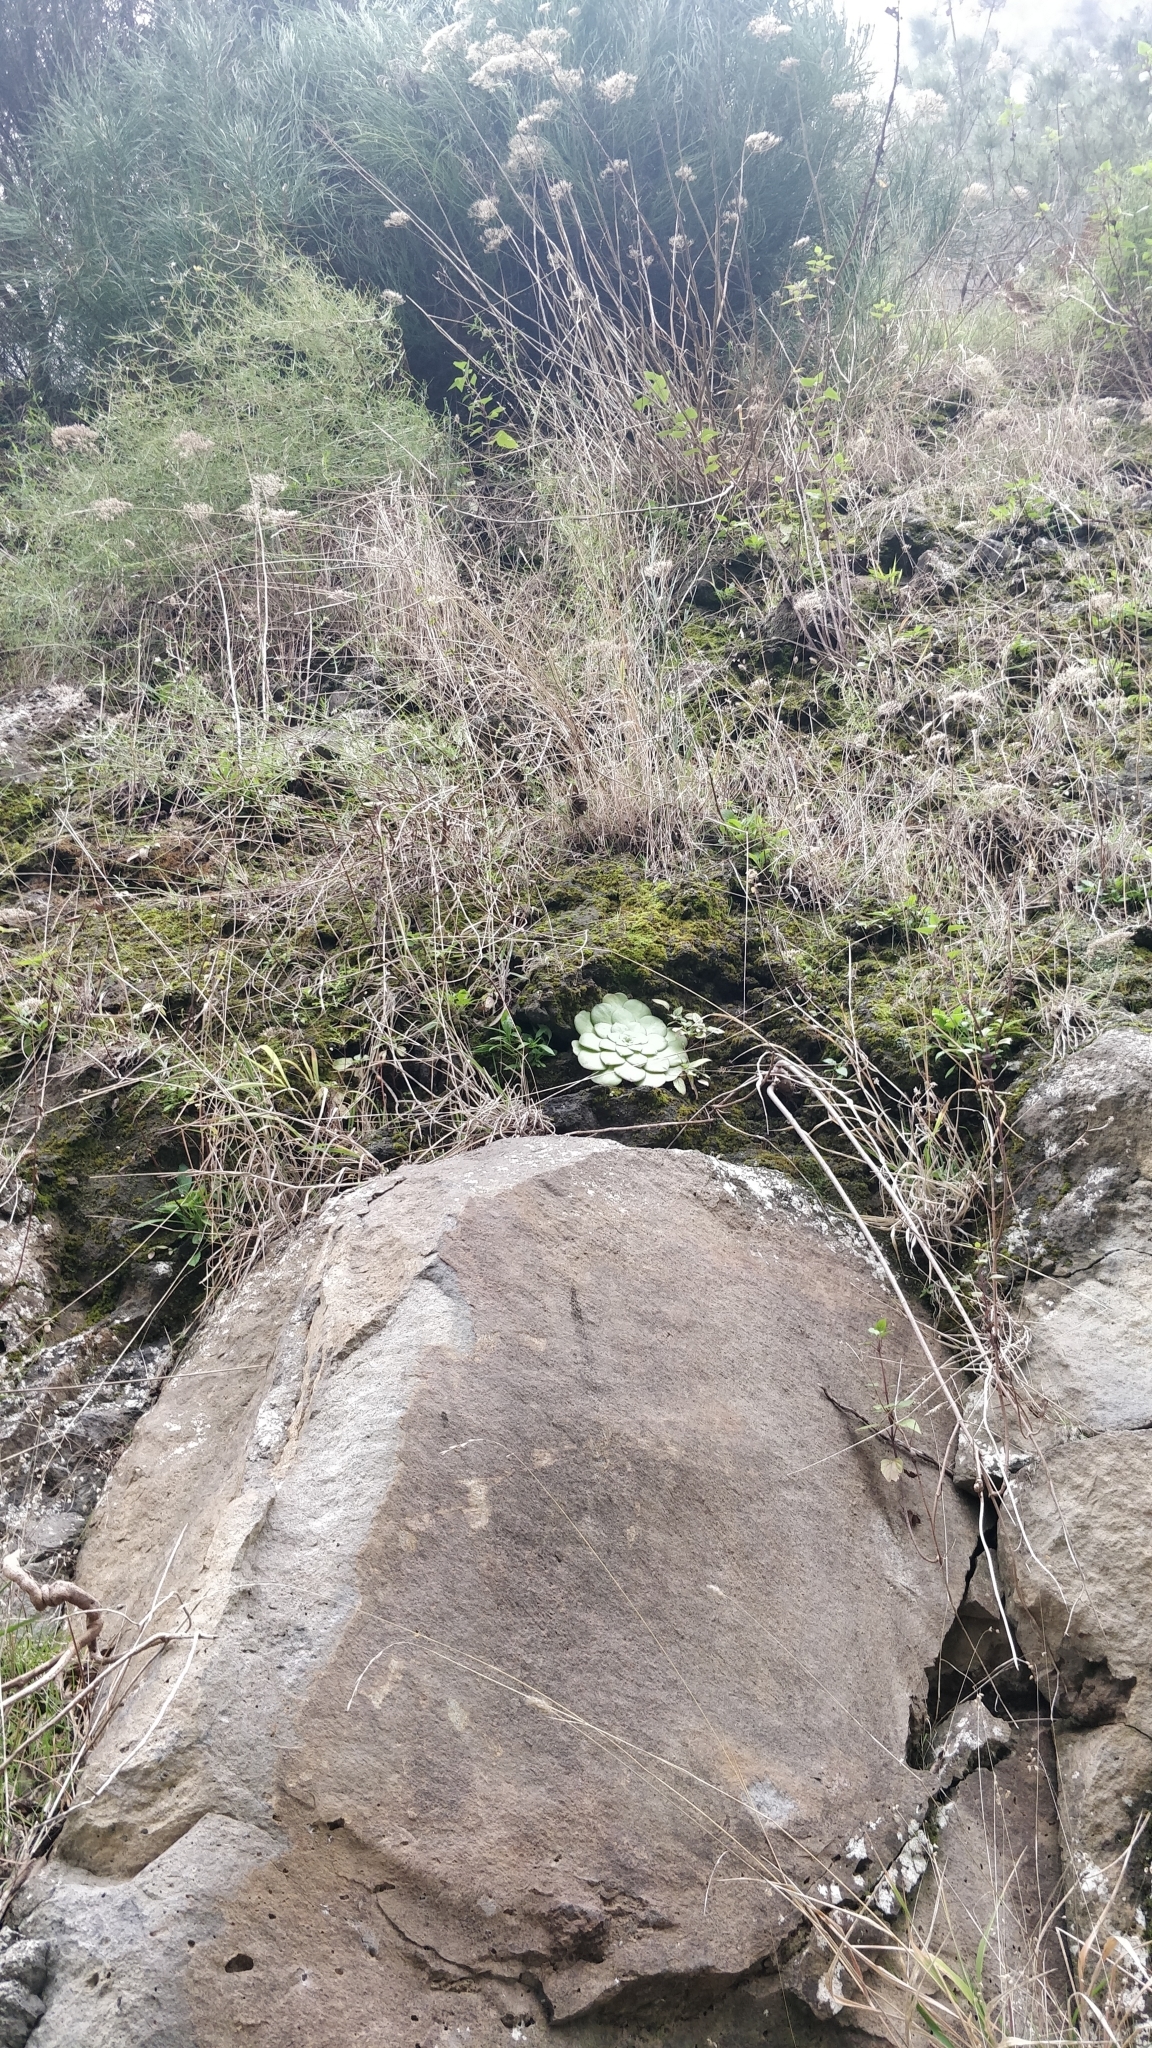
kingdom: Plantae
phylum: Tracheophyta
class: Magnoliopsida
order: Saxifragales
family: Crassulaceae
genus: Aeonium
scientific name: Aeonium glandulosum
